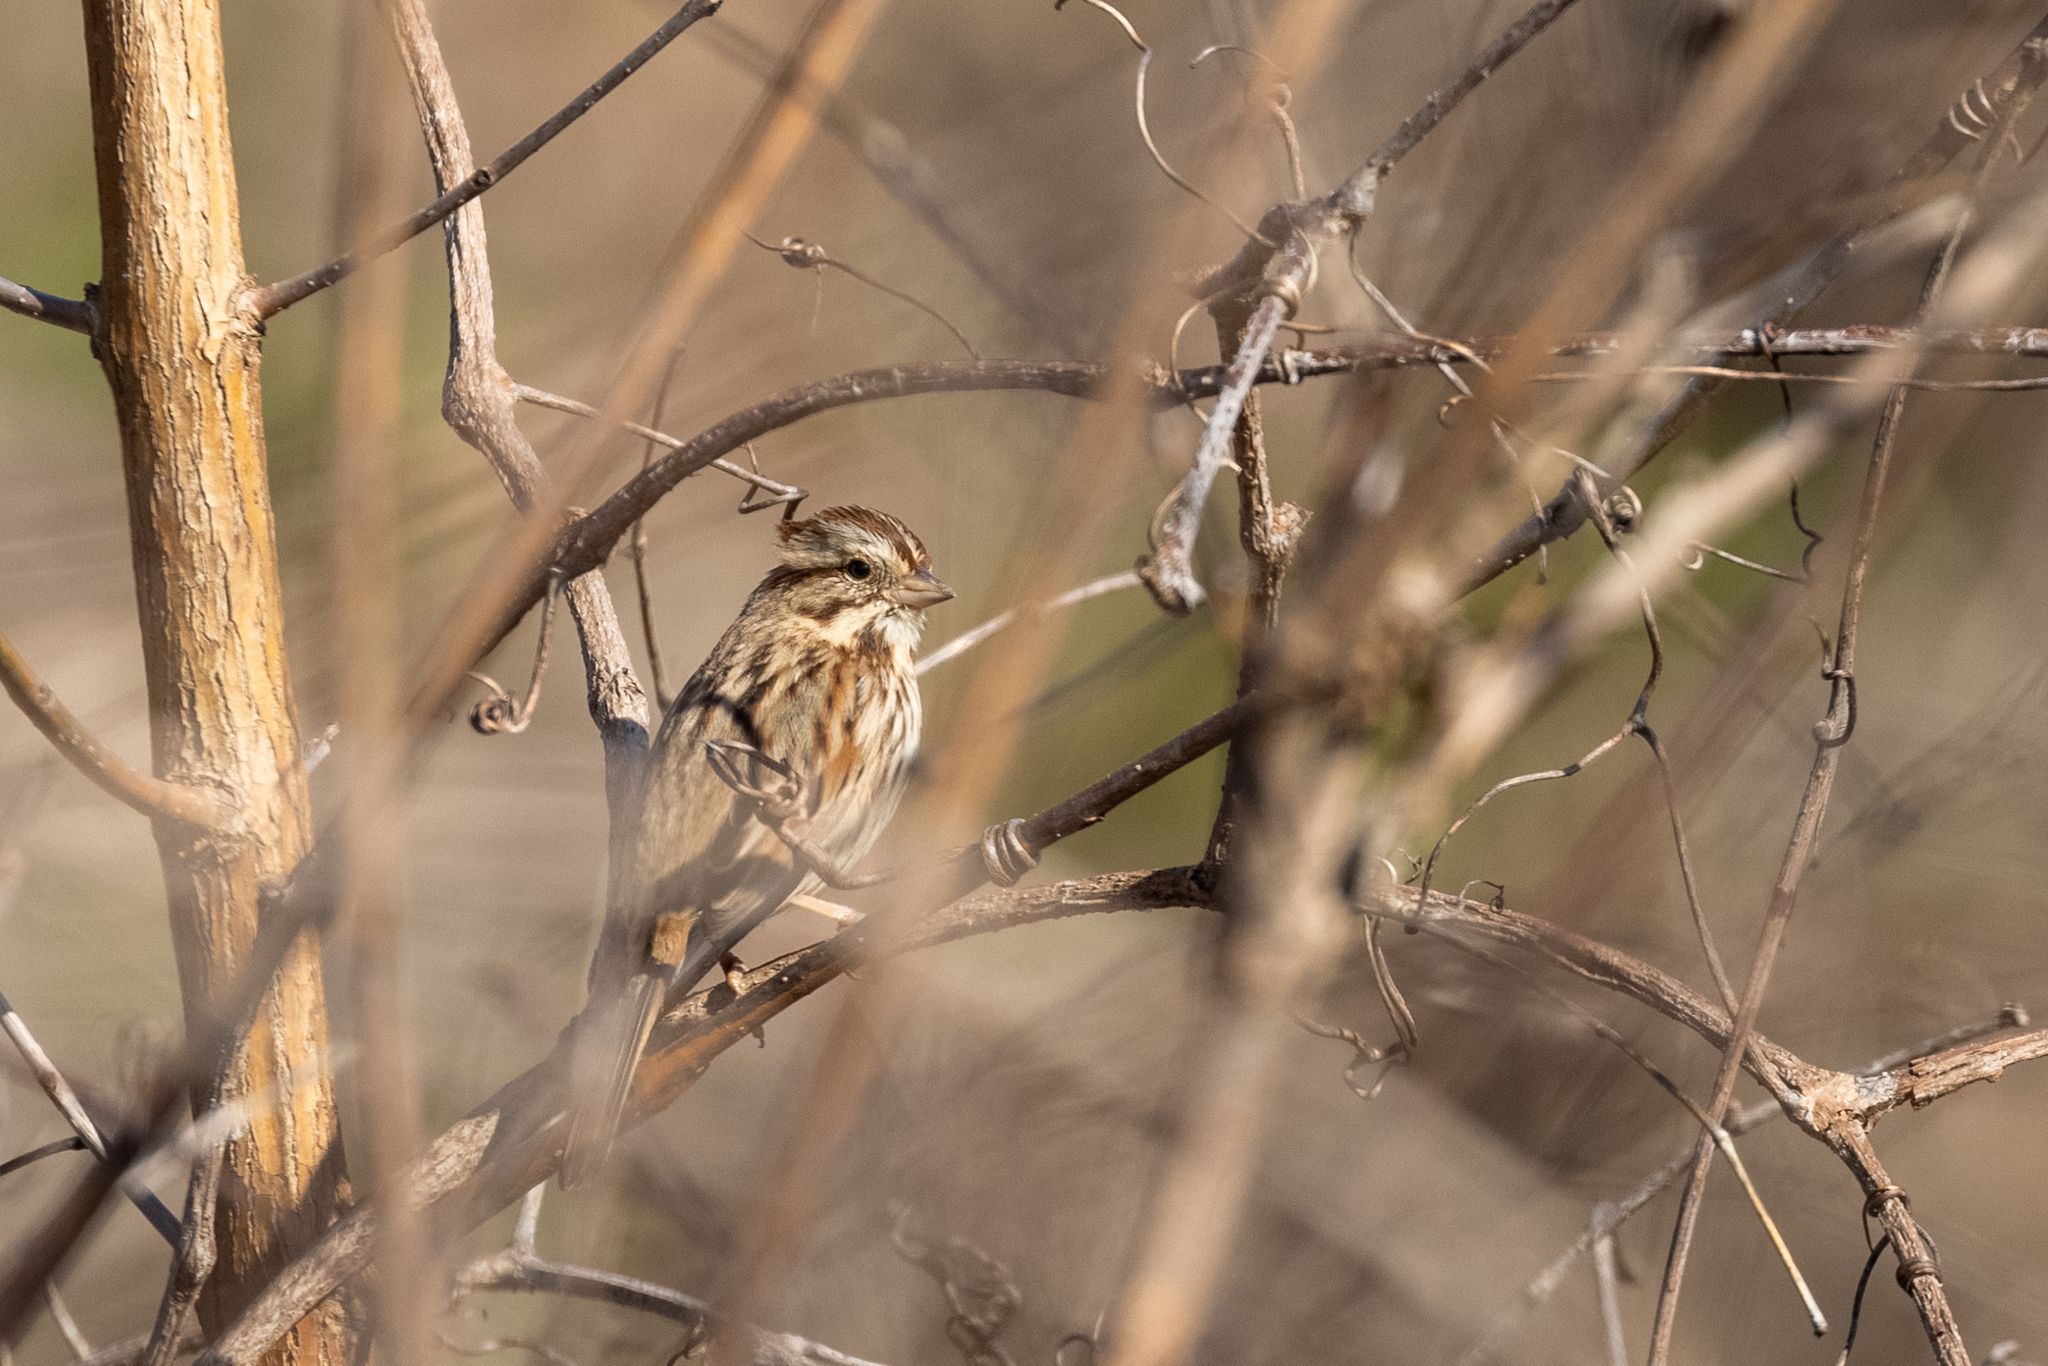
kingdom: Animalia
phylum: Chordata
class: Aves
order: Passeriformes
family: Passerellidae
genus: Melospiza
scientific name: Melospiza melodia
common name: Song sparrow
